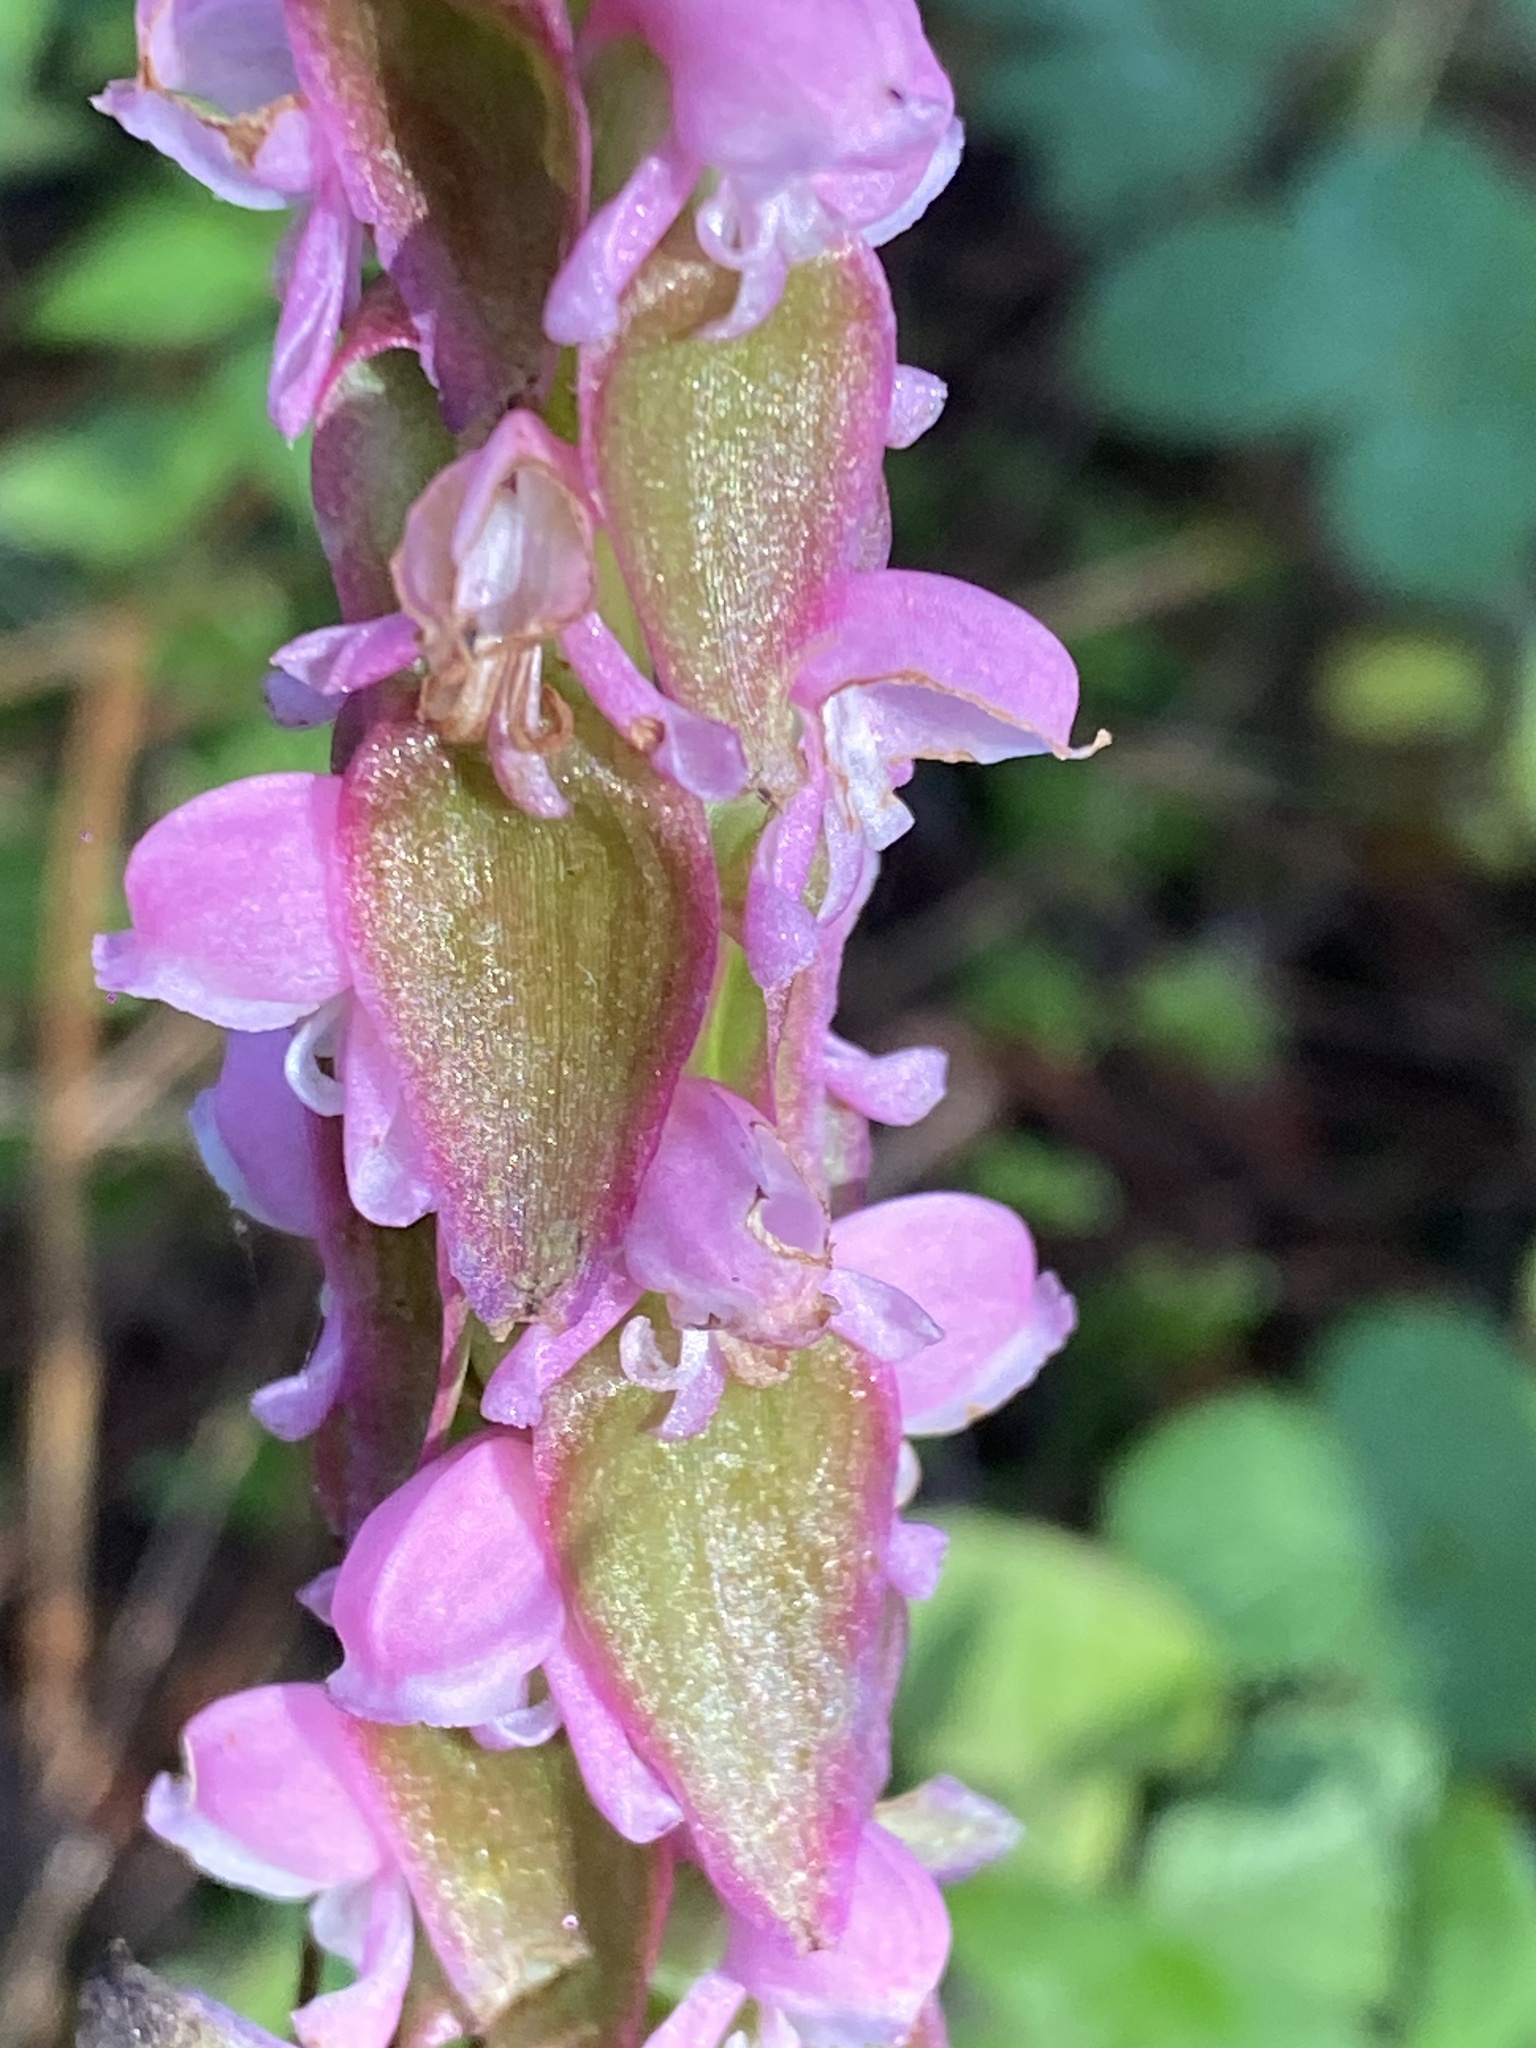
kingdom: Plantae
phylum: Tracheophyta
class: Liliopsida
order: Asparagales
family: Orchidaceae
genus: Satyrium
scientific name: Satyrium nepalense
